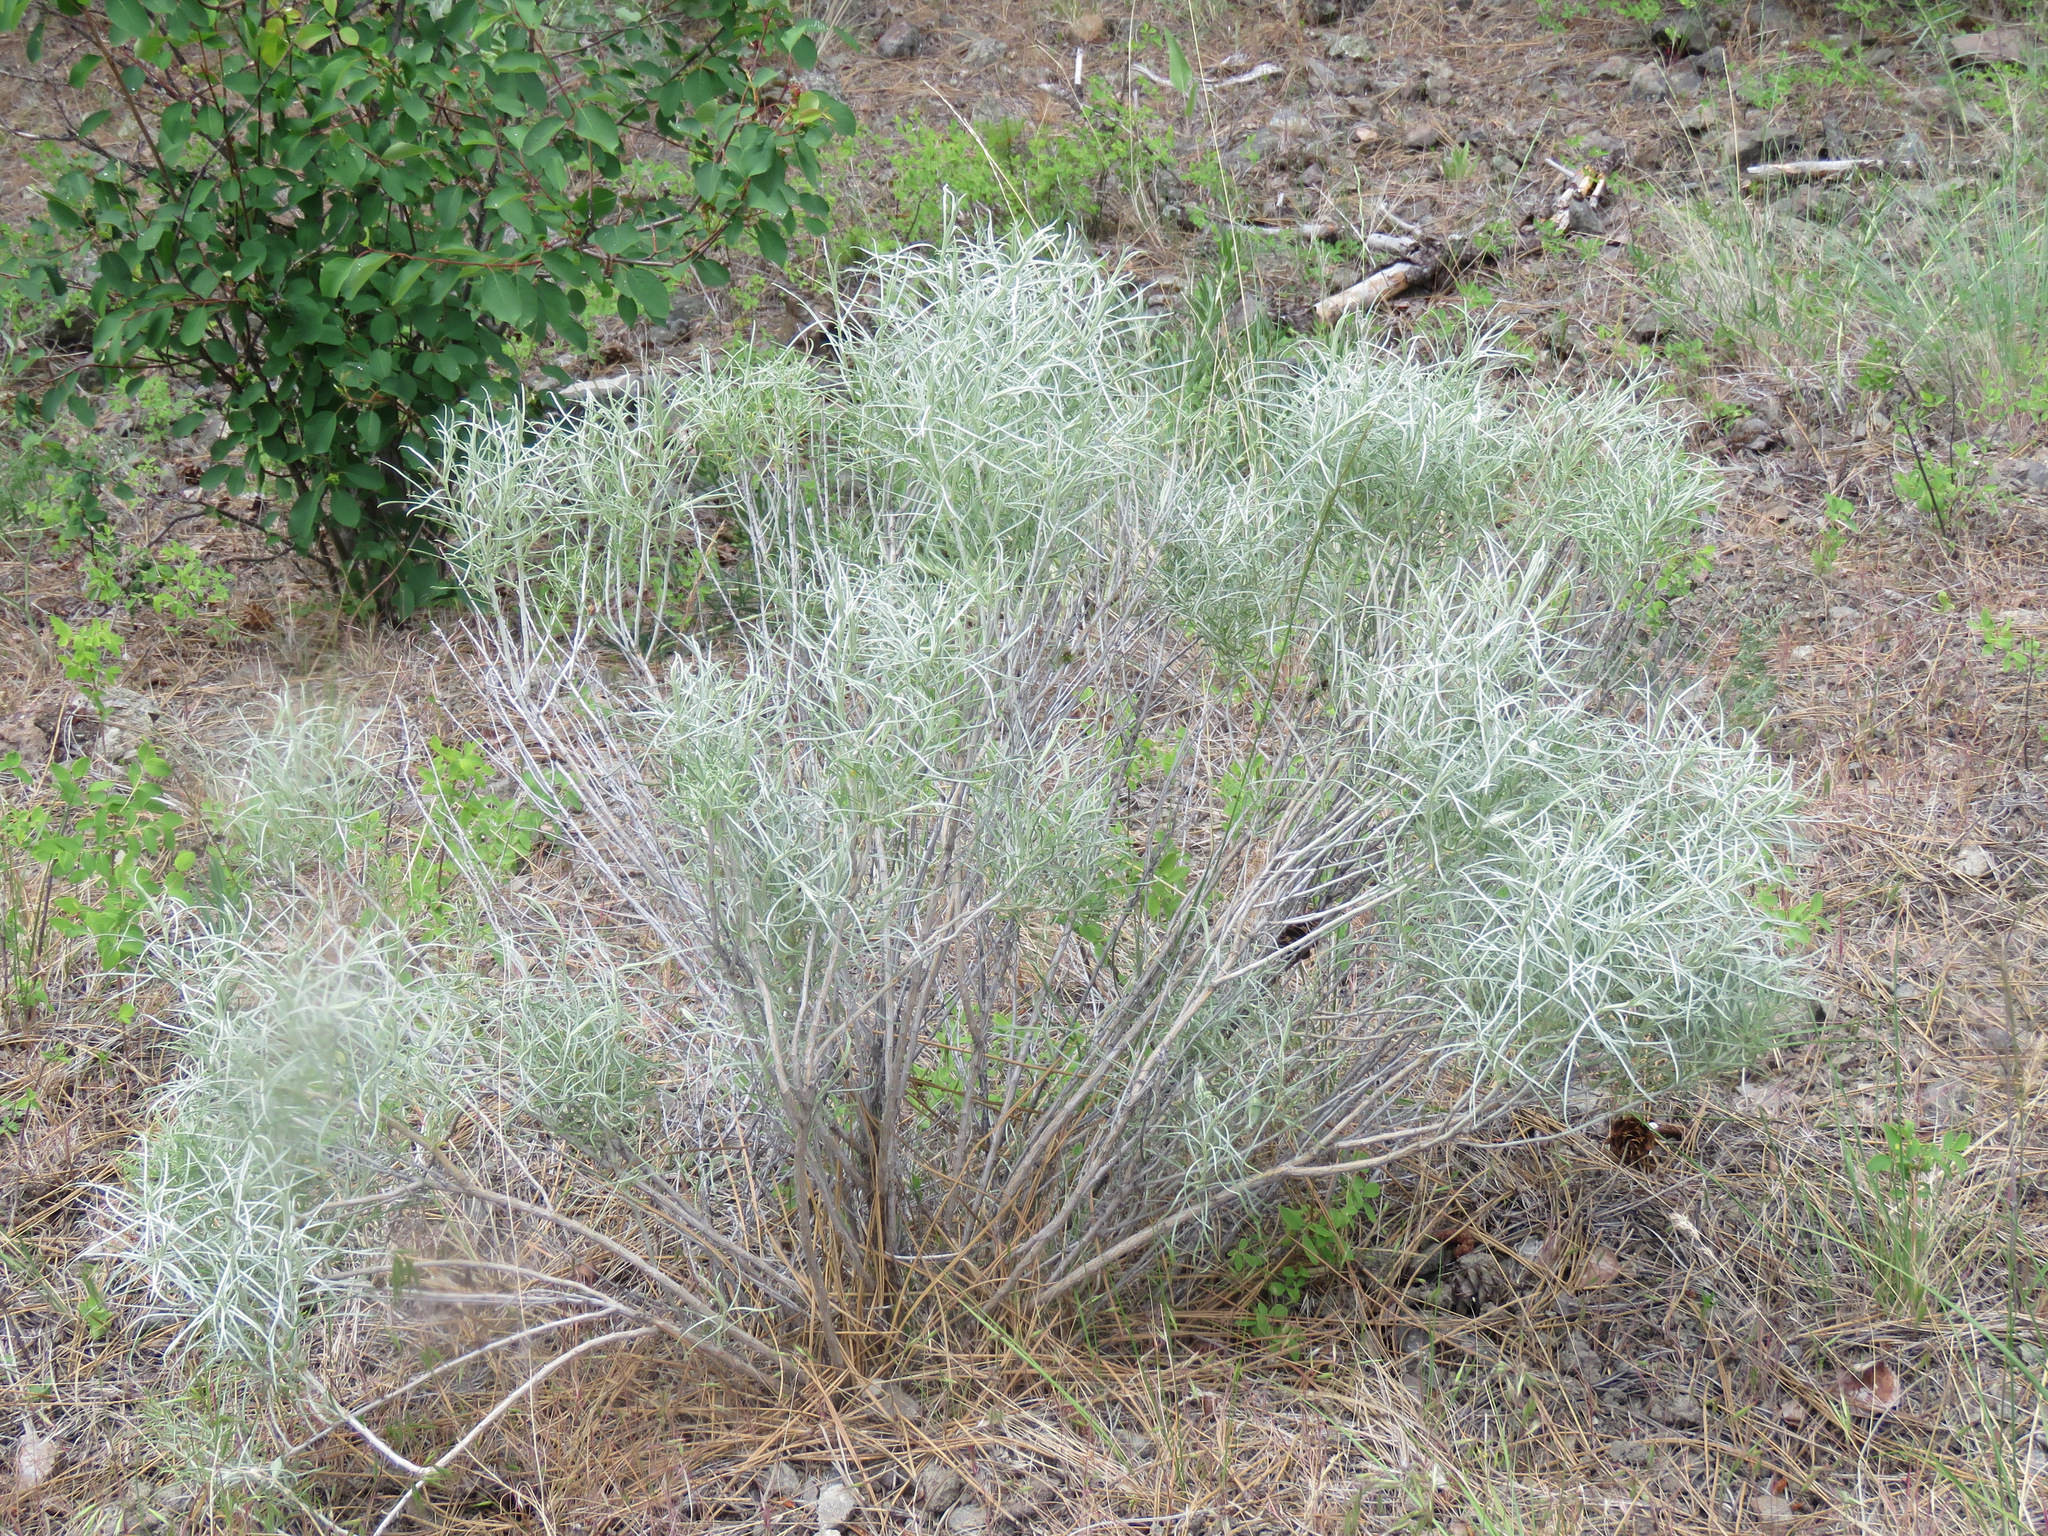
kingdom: Plantae
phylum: Tracheophyta
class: Magnoliopsida
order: Asterales
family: Asteraceae
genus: Ericameria
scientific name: Ericameria nauseosa
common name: Rubber rabbitbrush
